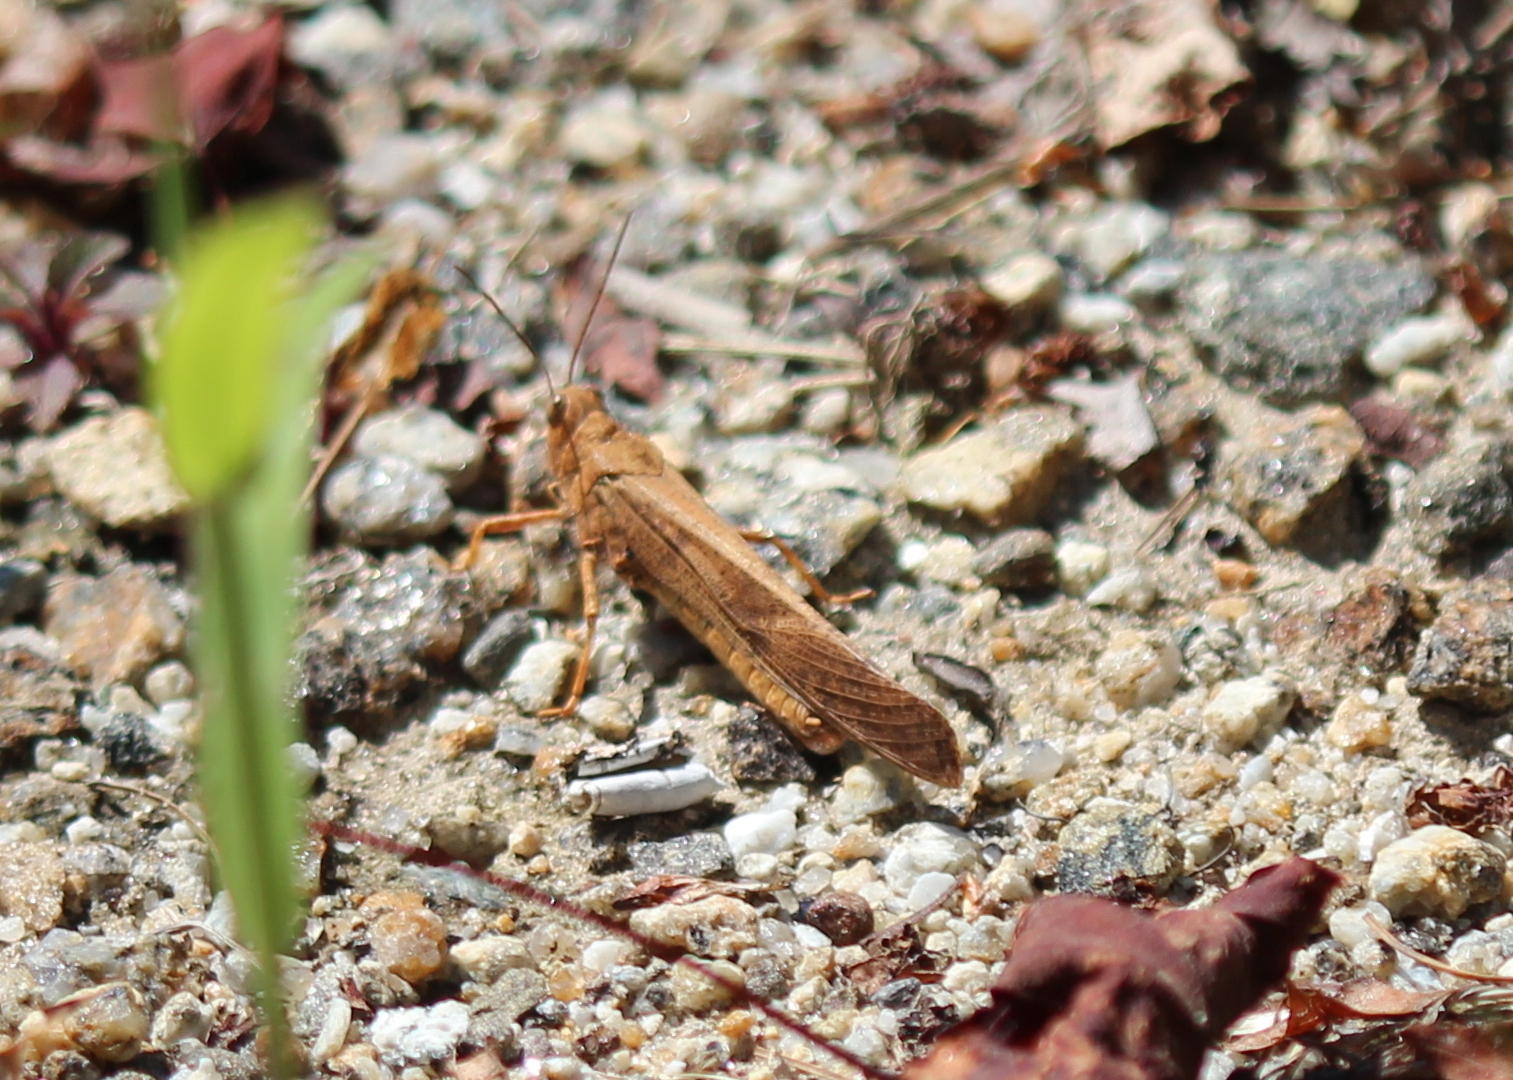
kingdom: Animalia
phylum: Arthropoda
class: Insecta
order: Orthoptera
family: Acrididae
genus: Dissosteira
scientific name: Dissosteira carolina
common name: Carolina grasshopper
